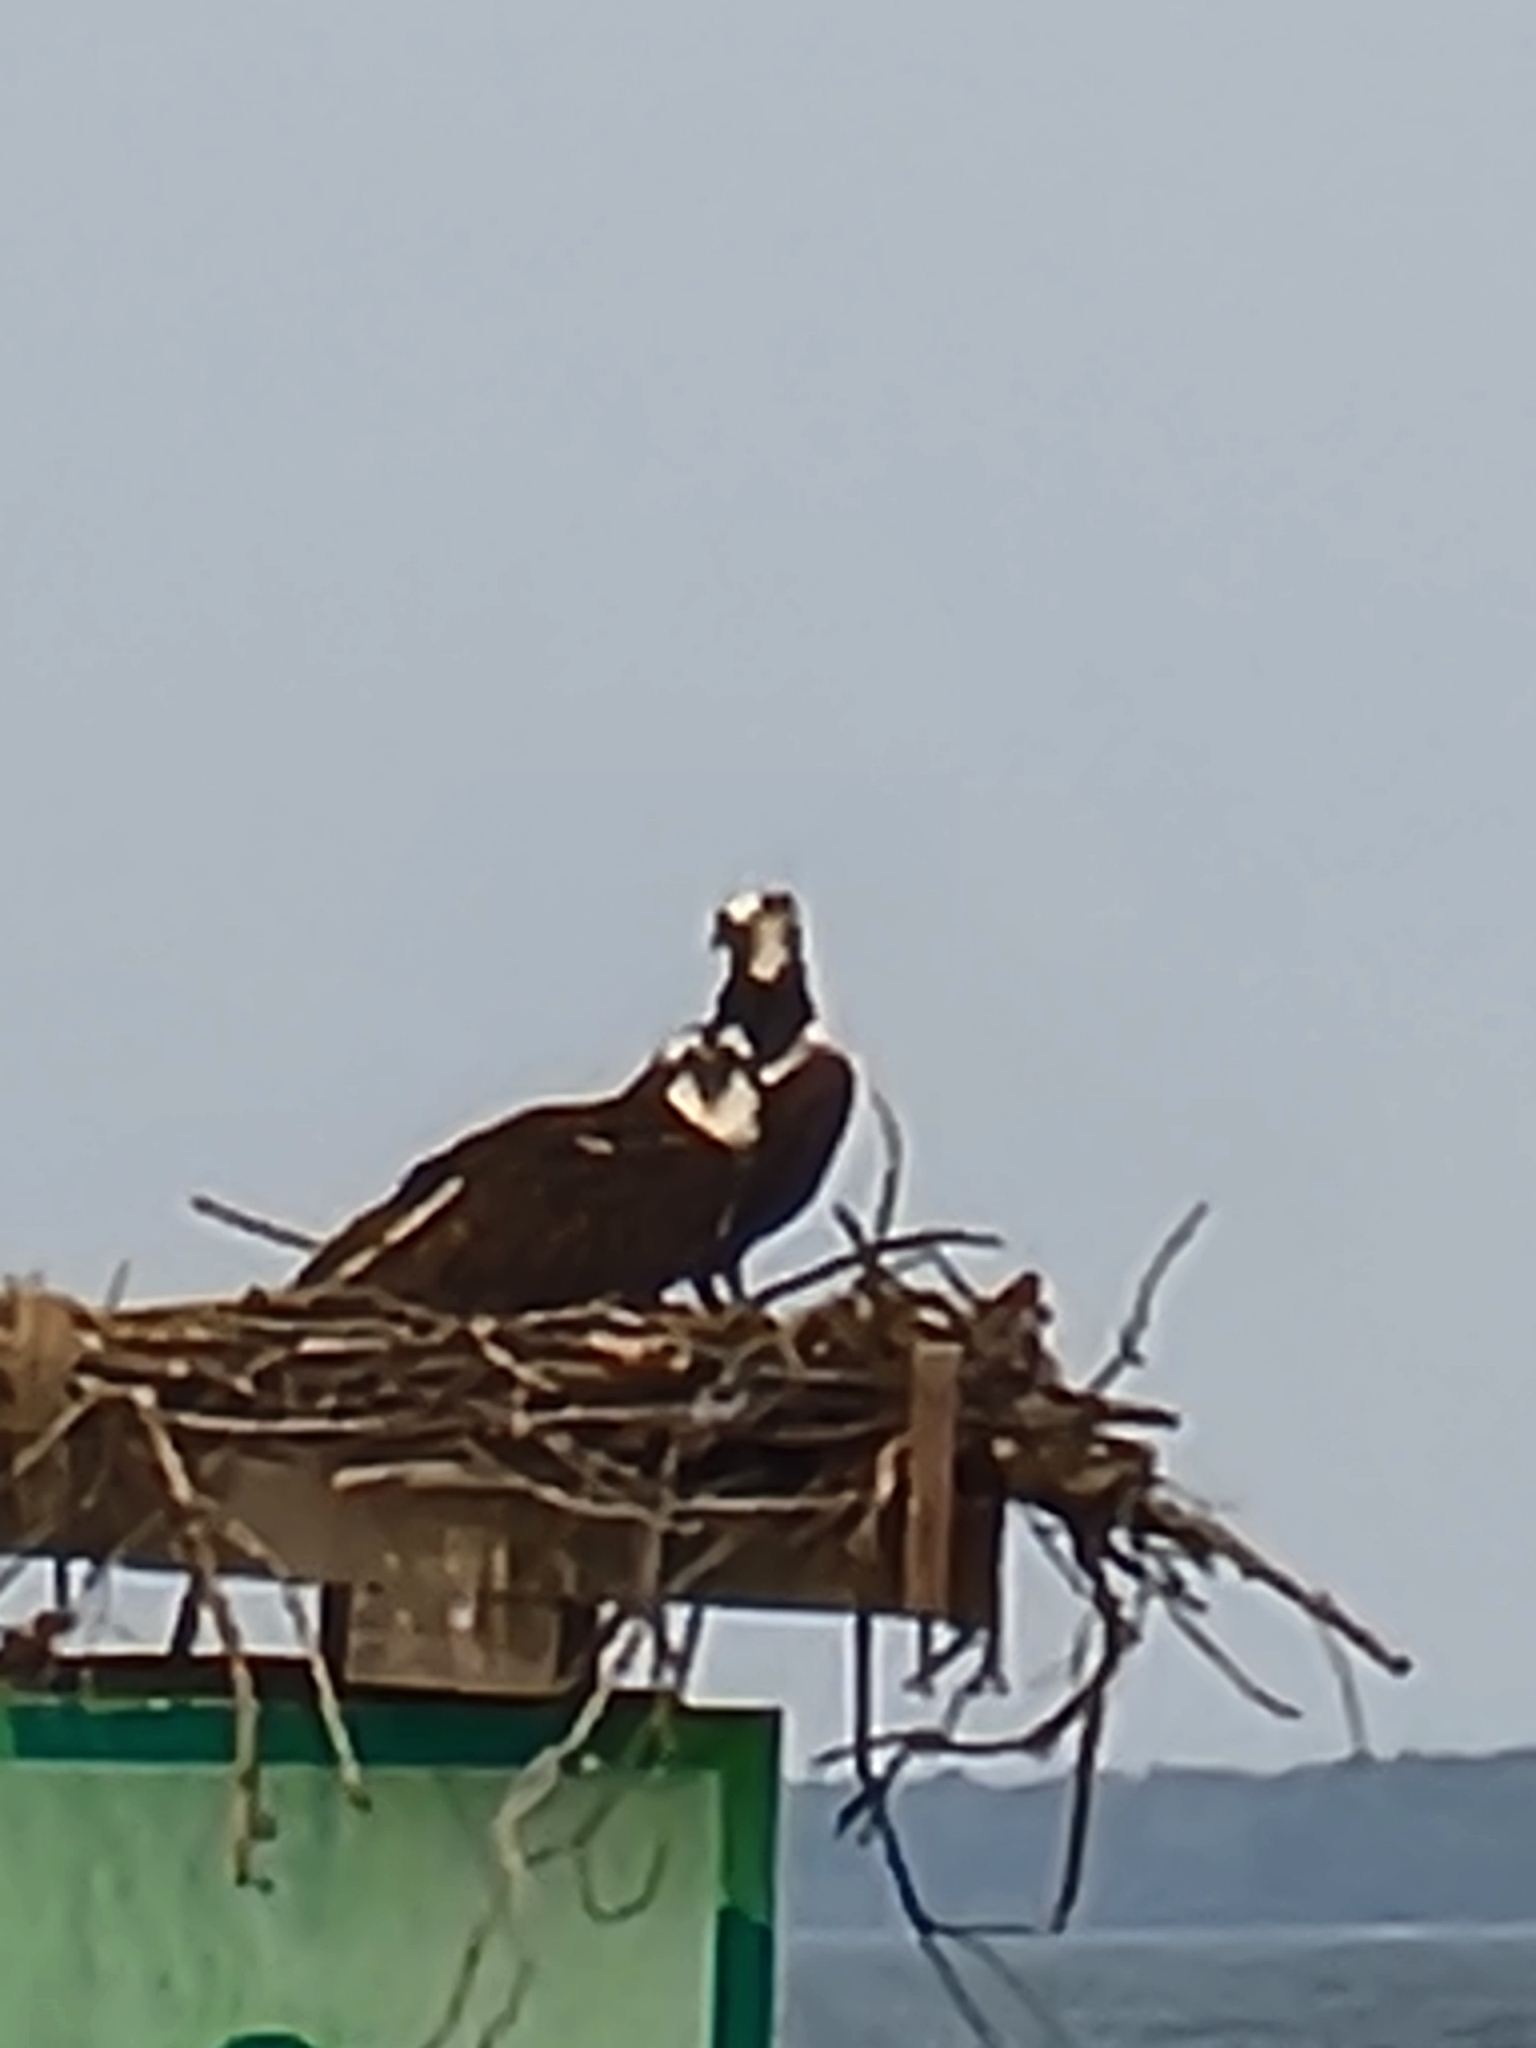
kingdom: Animalia
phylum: Chordata
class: Aves
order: Accipitriformes
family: Pandionidae
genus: Pandion
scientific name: Pandion haliaetus
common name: Osprey
